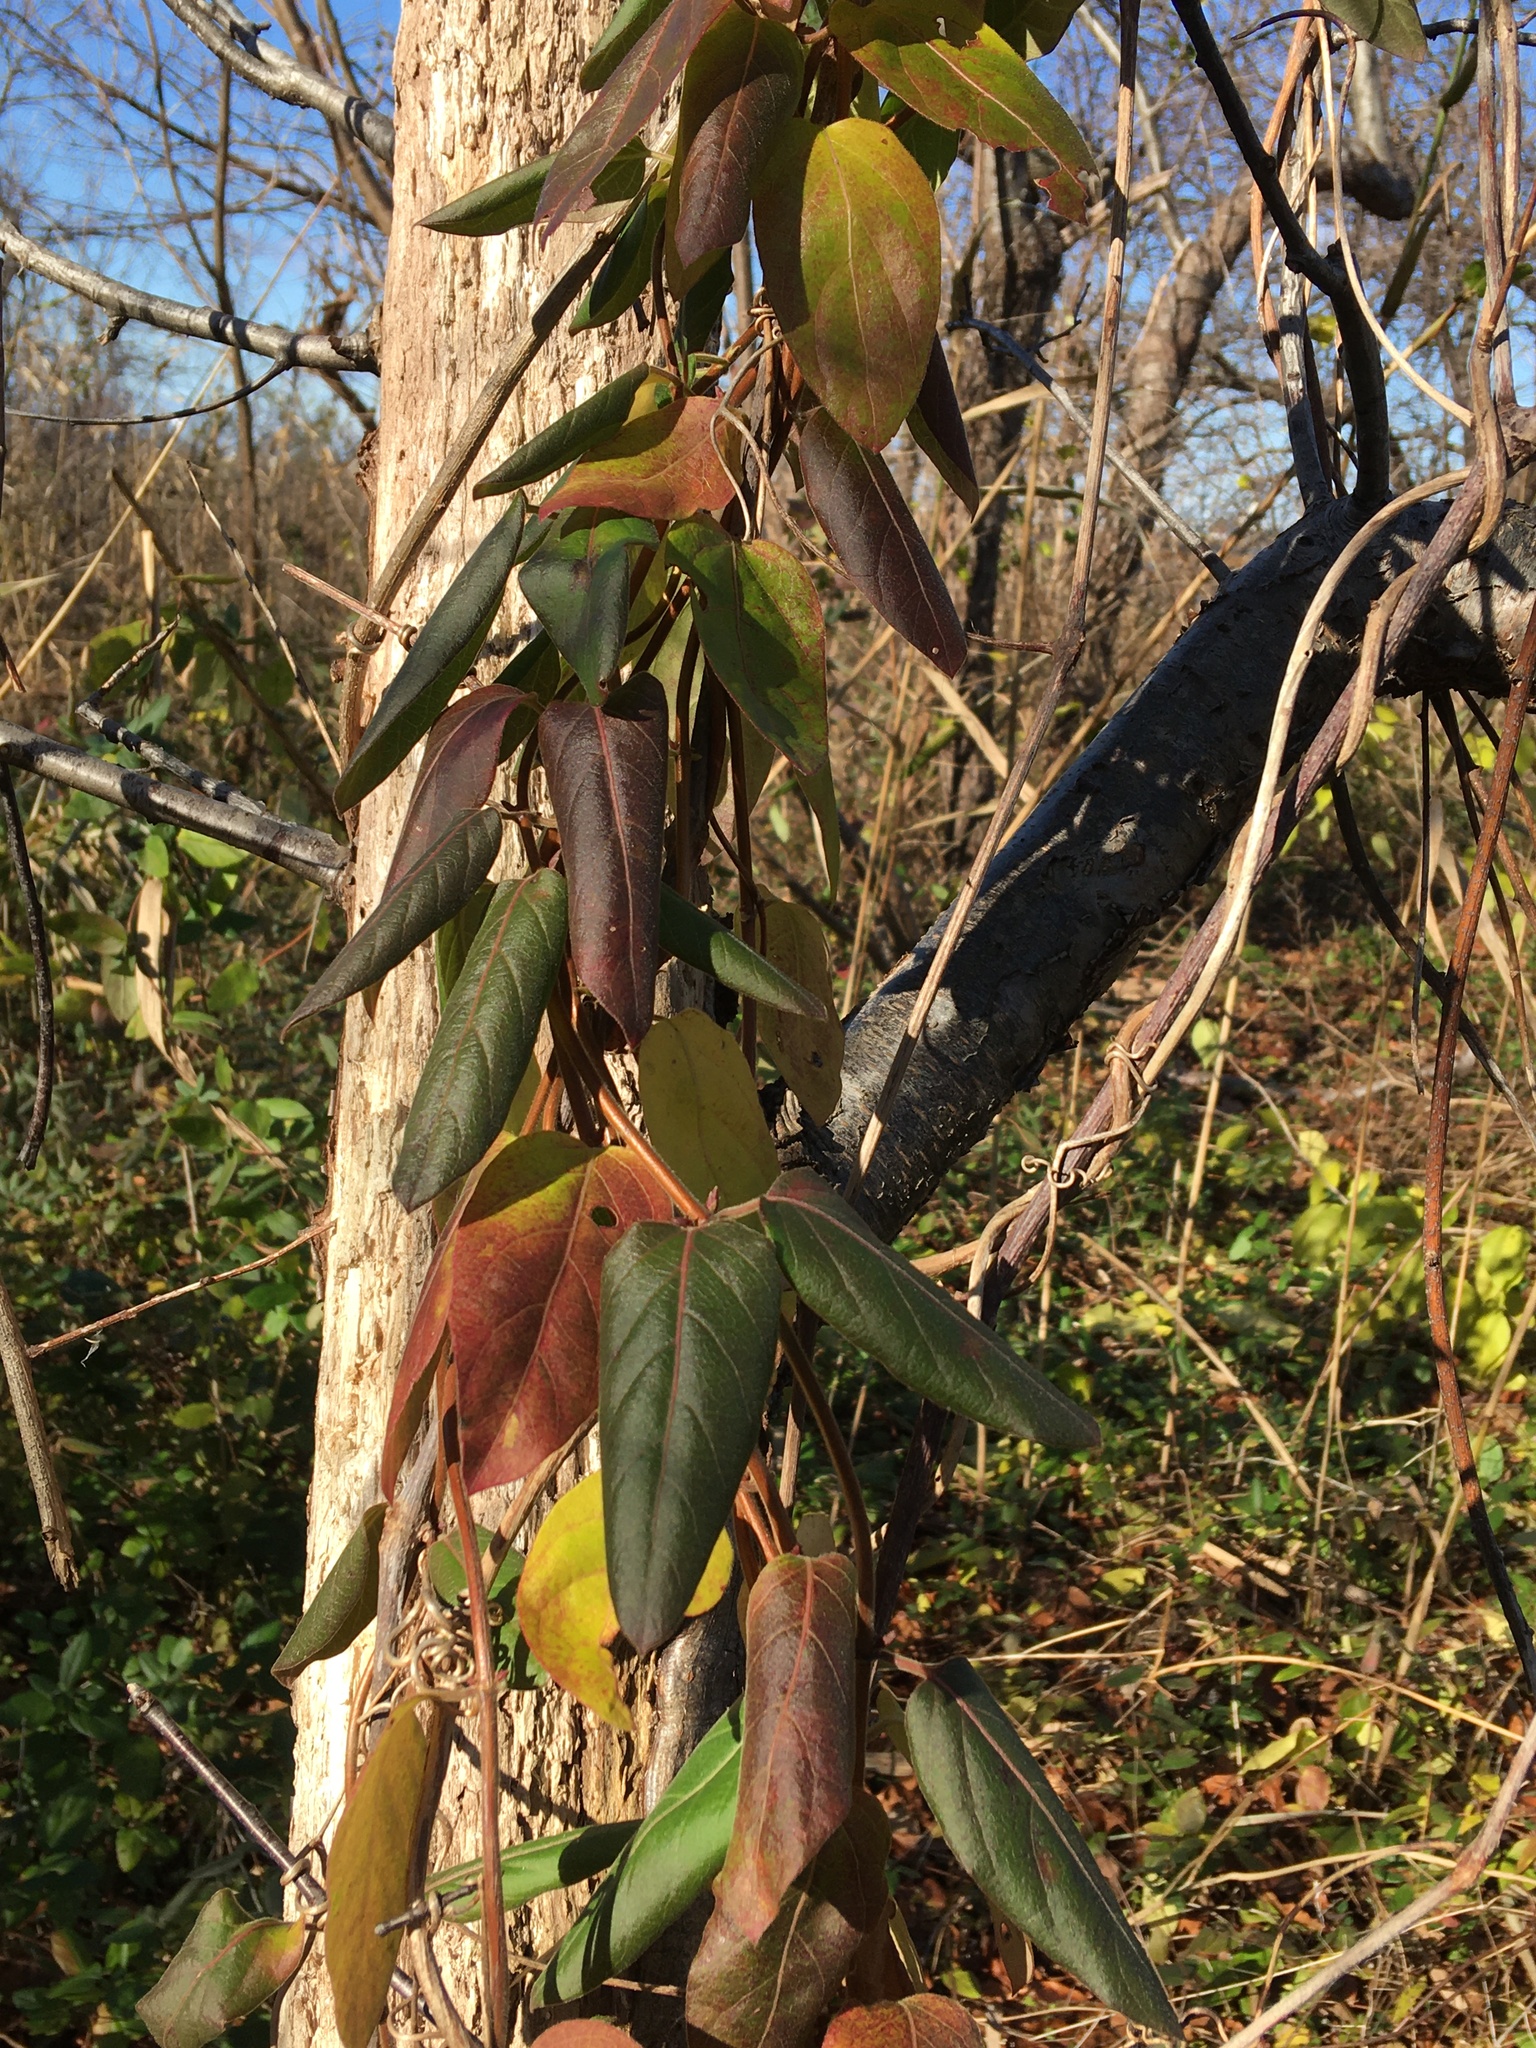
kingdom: Plantae
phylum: Tracheophyta
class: Magnoliopsida
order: Dipsacales
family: Caprifoliaceae
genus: Lonicera
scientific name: Lonicera japonica
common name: Japanese honeysuckle
